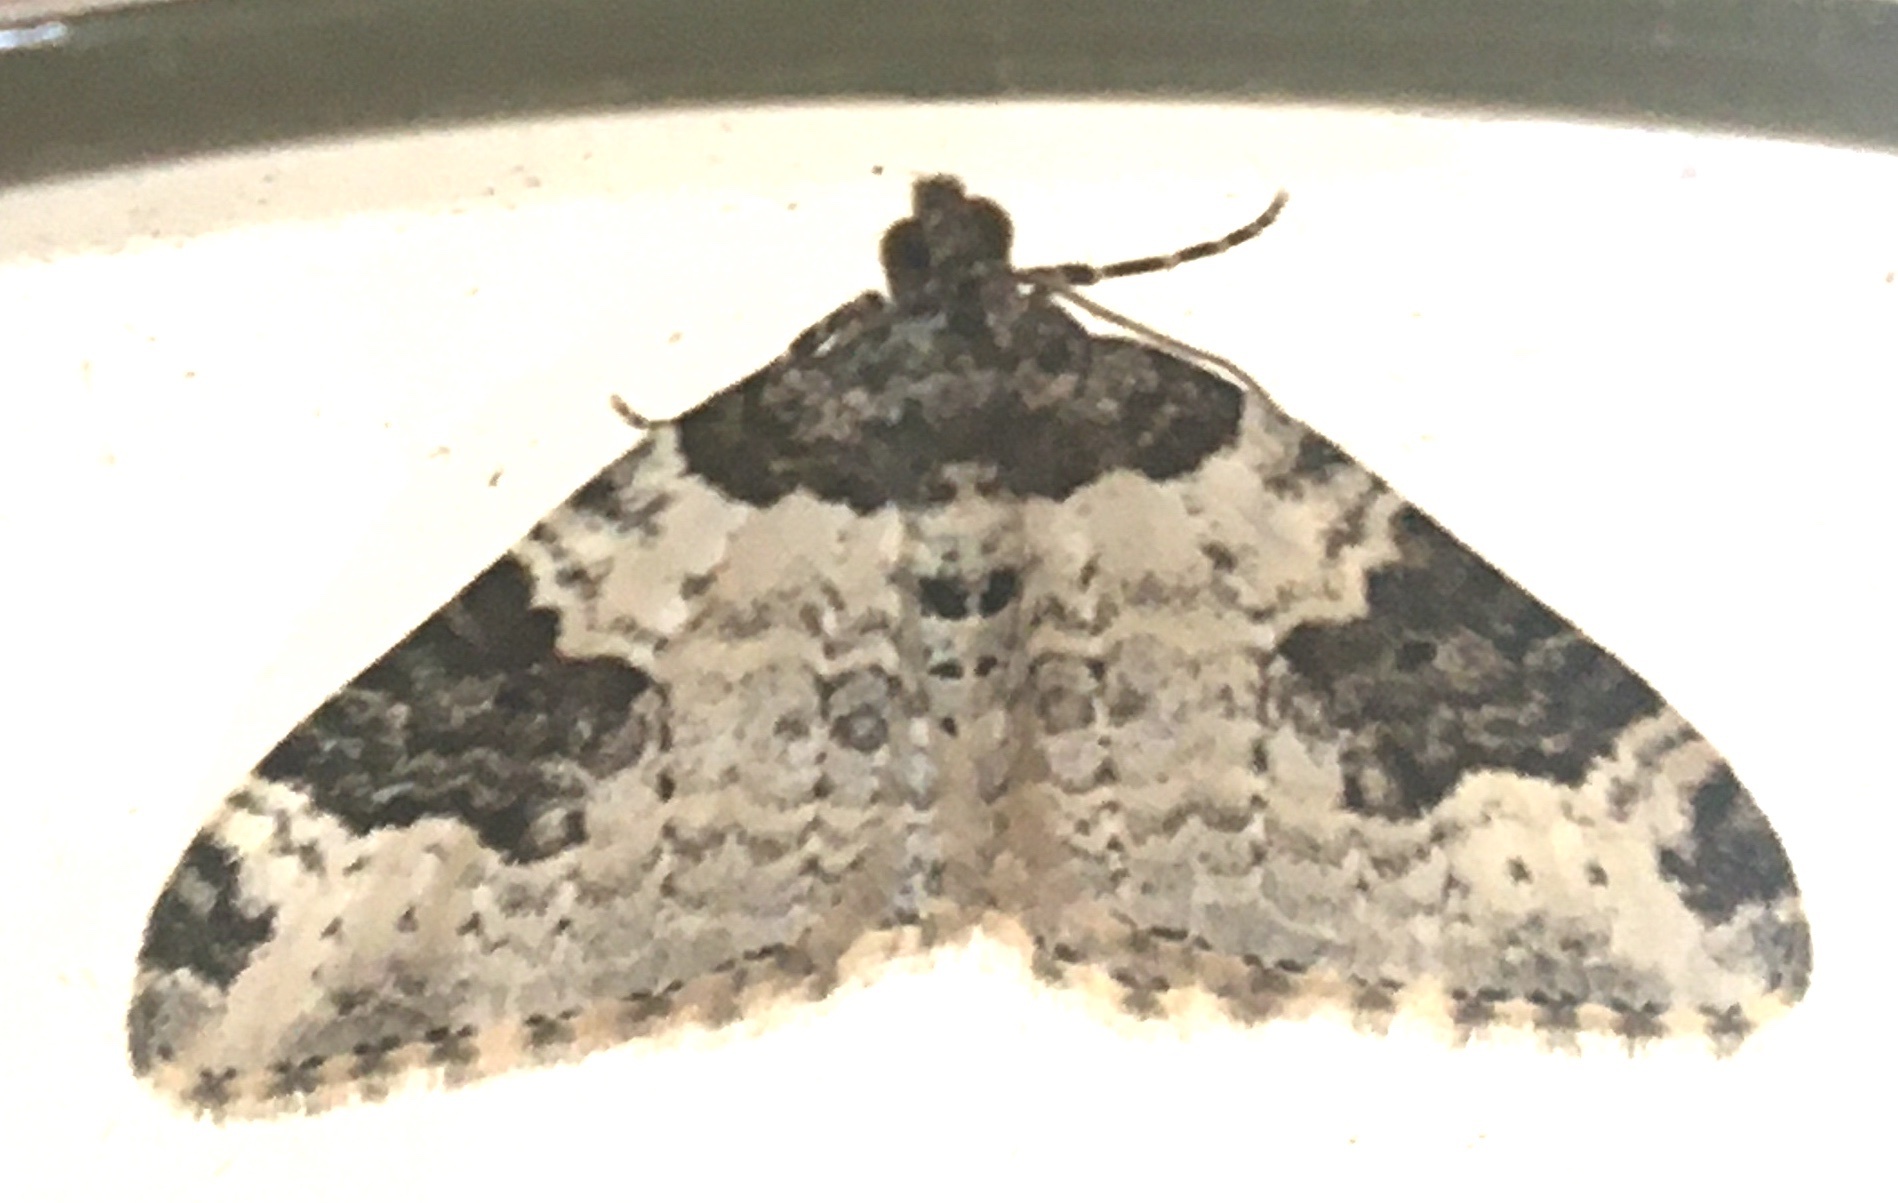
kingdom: Animalia
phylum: Arthropoda
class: Insecta
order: Lepidoptera
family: Geometridae
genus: Xanthorhoe
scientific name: Xanthorhoe fluctuata
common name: Garden carpet
